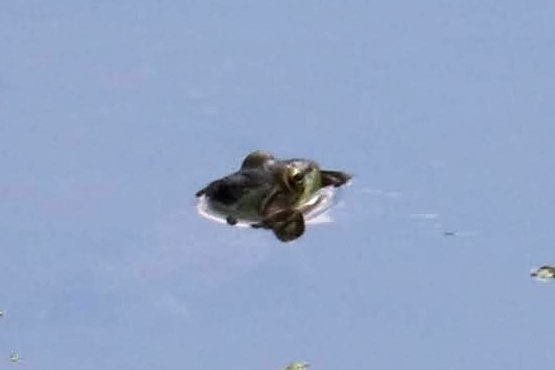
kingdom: Animalia
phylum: Chordata
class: Amphibia
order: Anura
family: Ranidae
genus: Lithobates
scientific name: Lithobates
